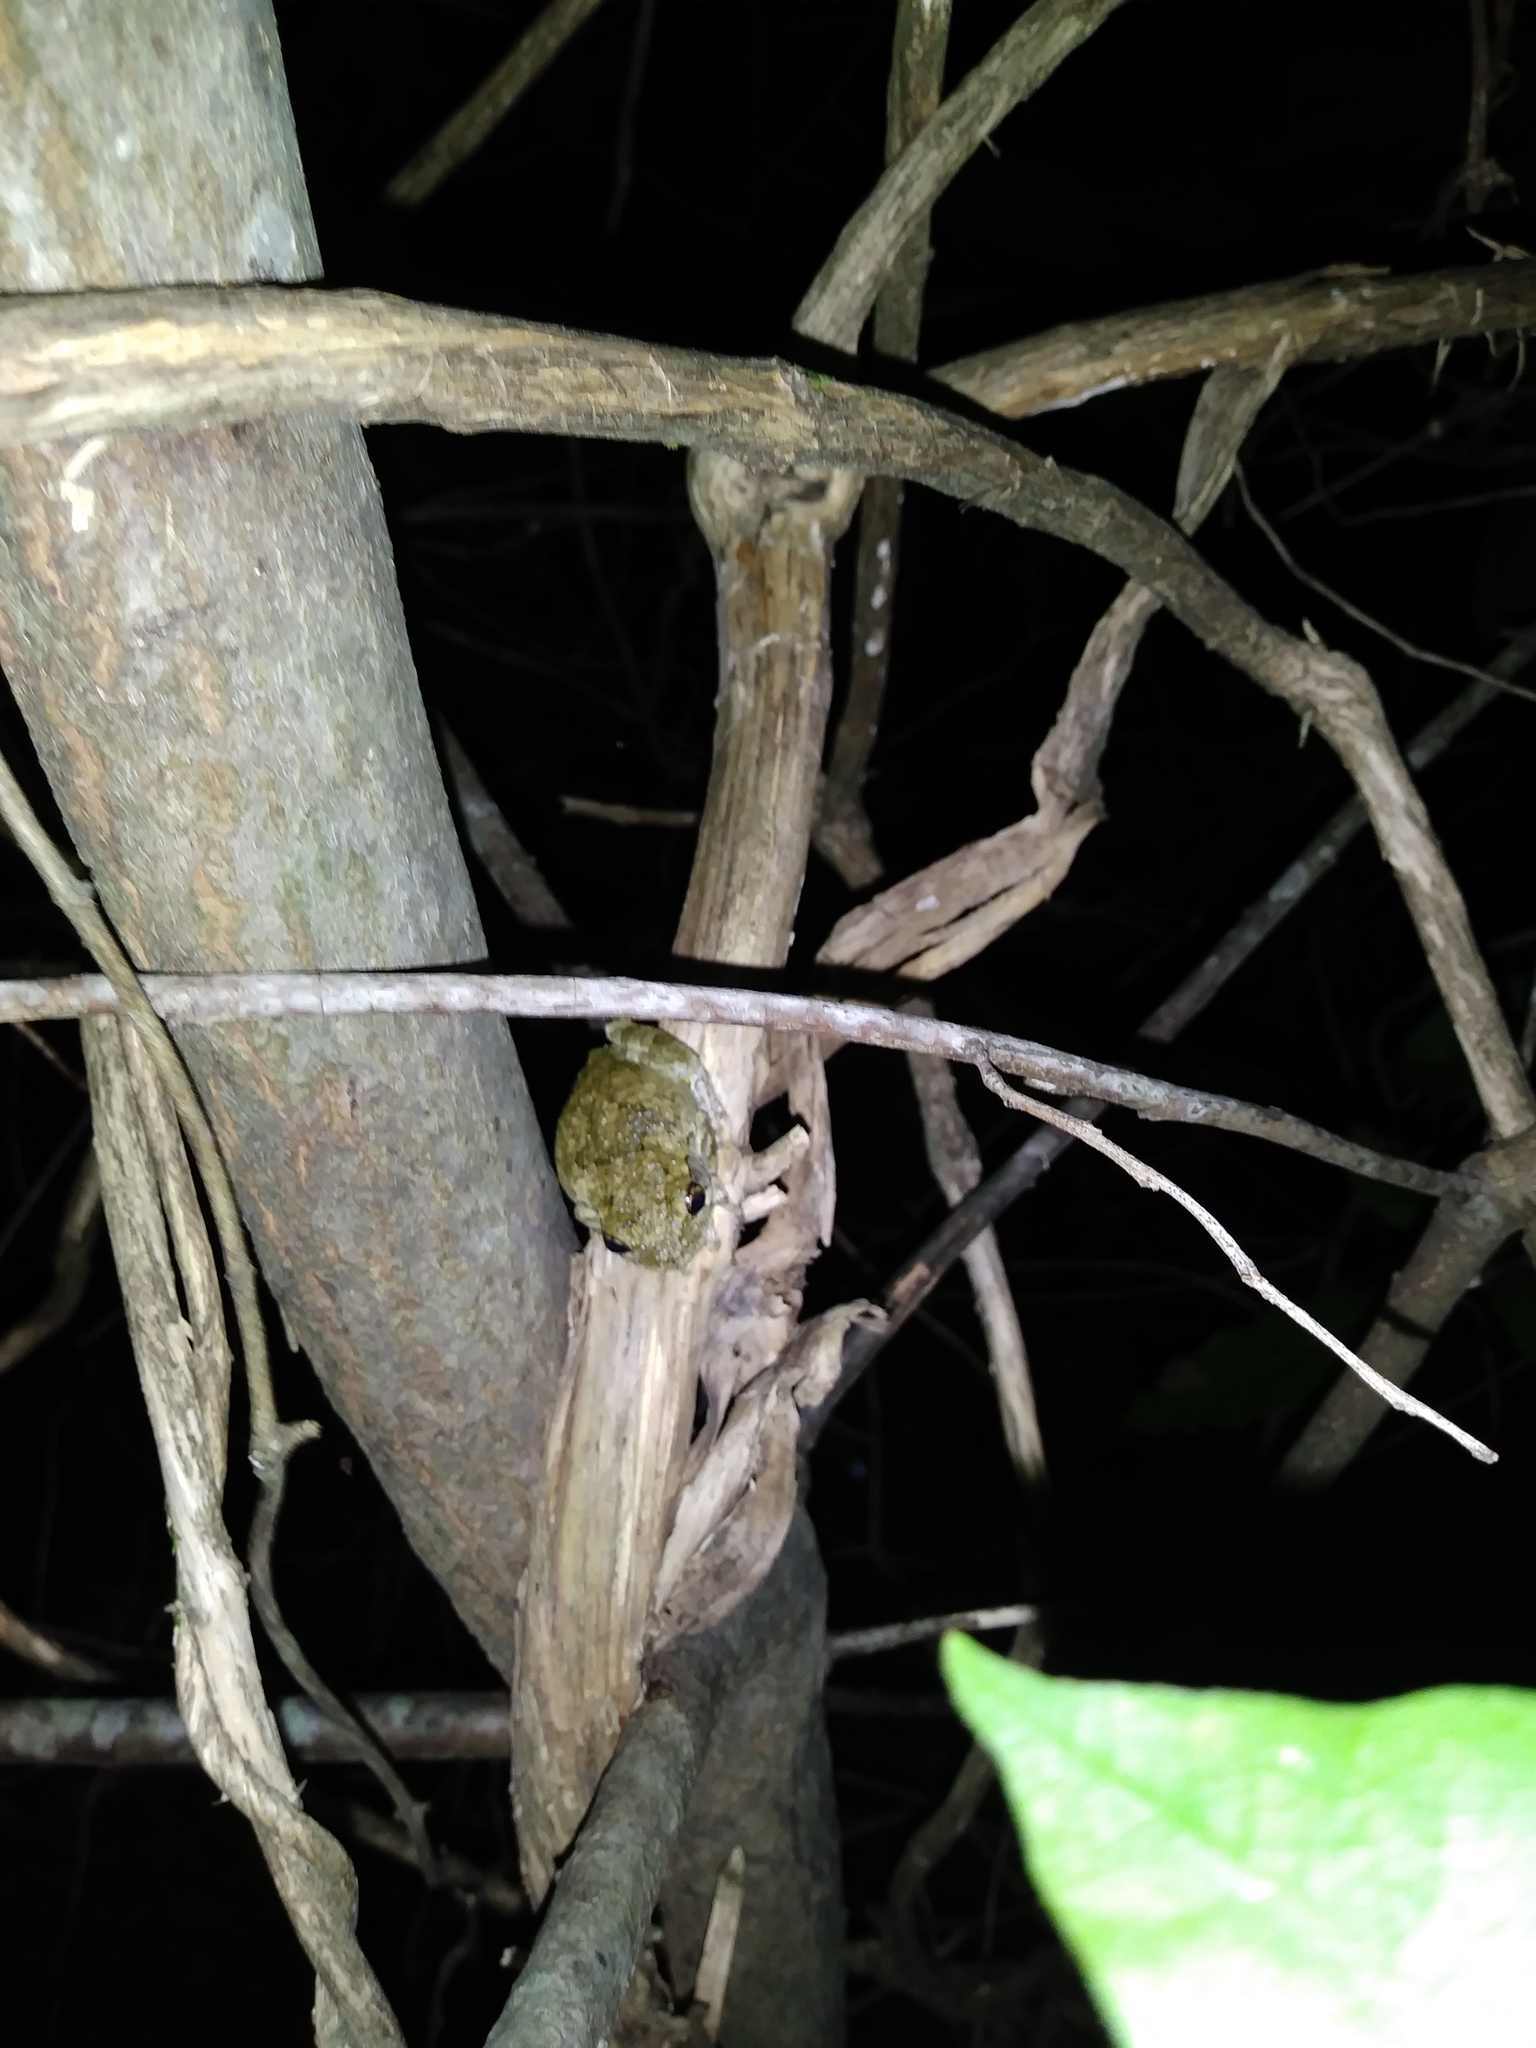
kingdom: Animalia
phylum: Chordata
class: Amphibia
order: Anura
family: Hylidae
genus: Dryophytes
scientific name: Dryophytes chrysoscelis
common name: Cope's gray treefrog
